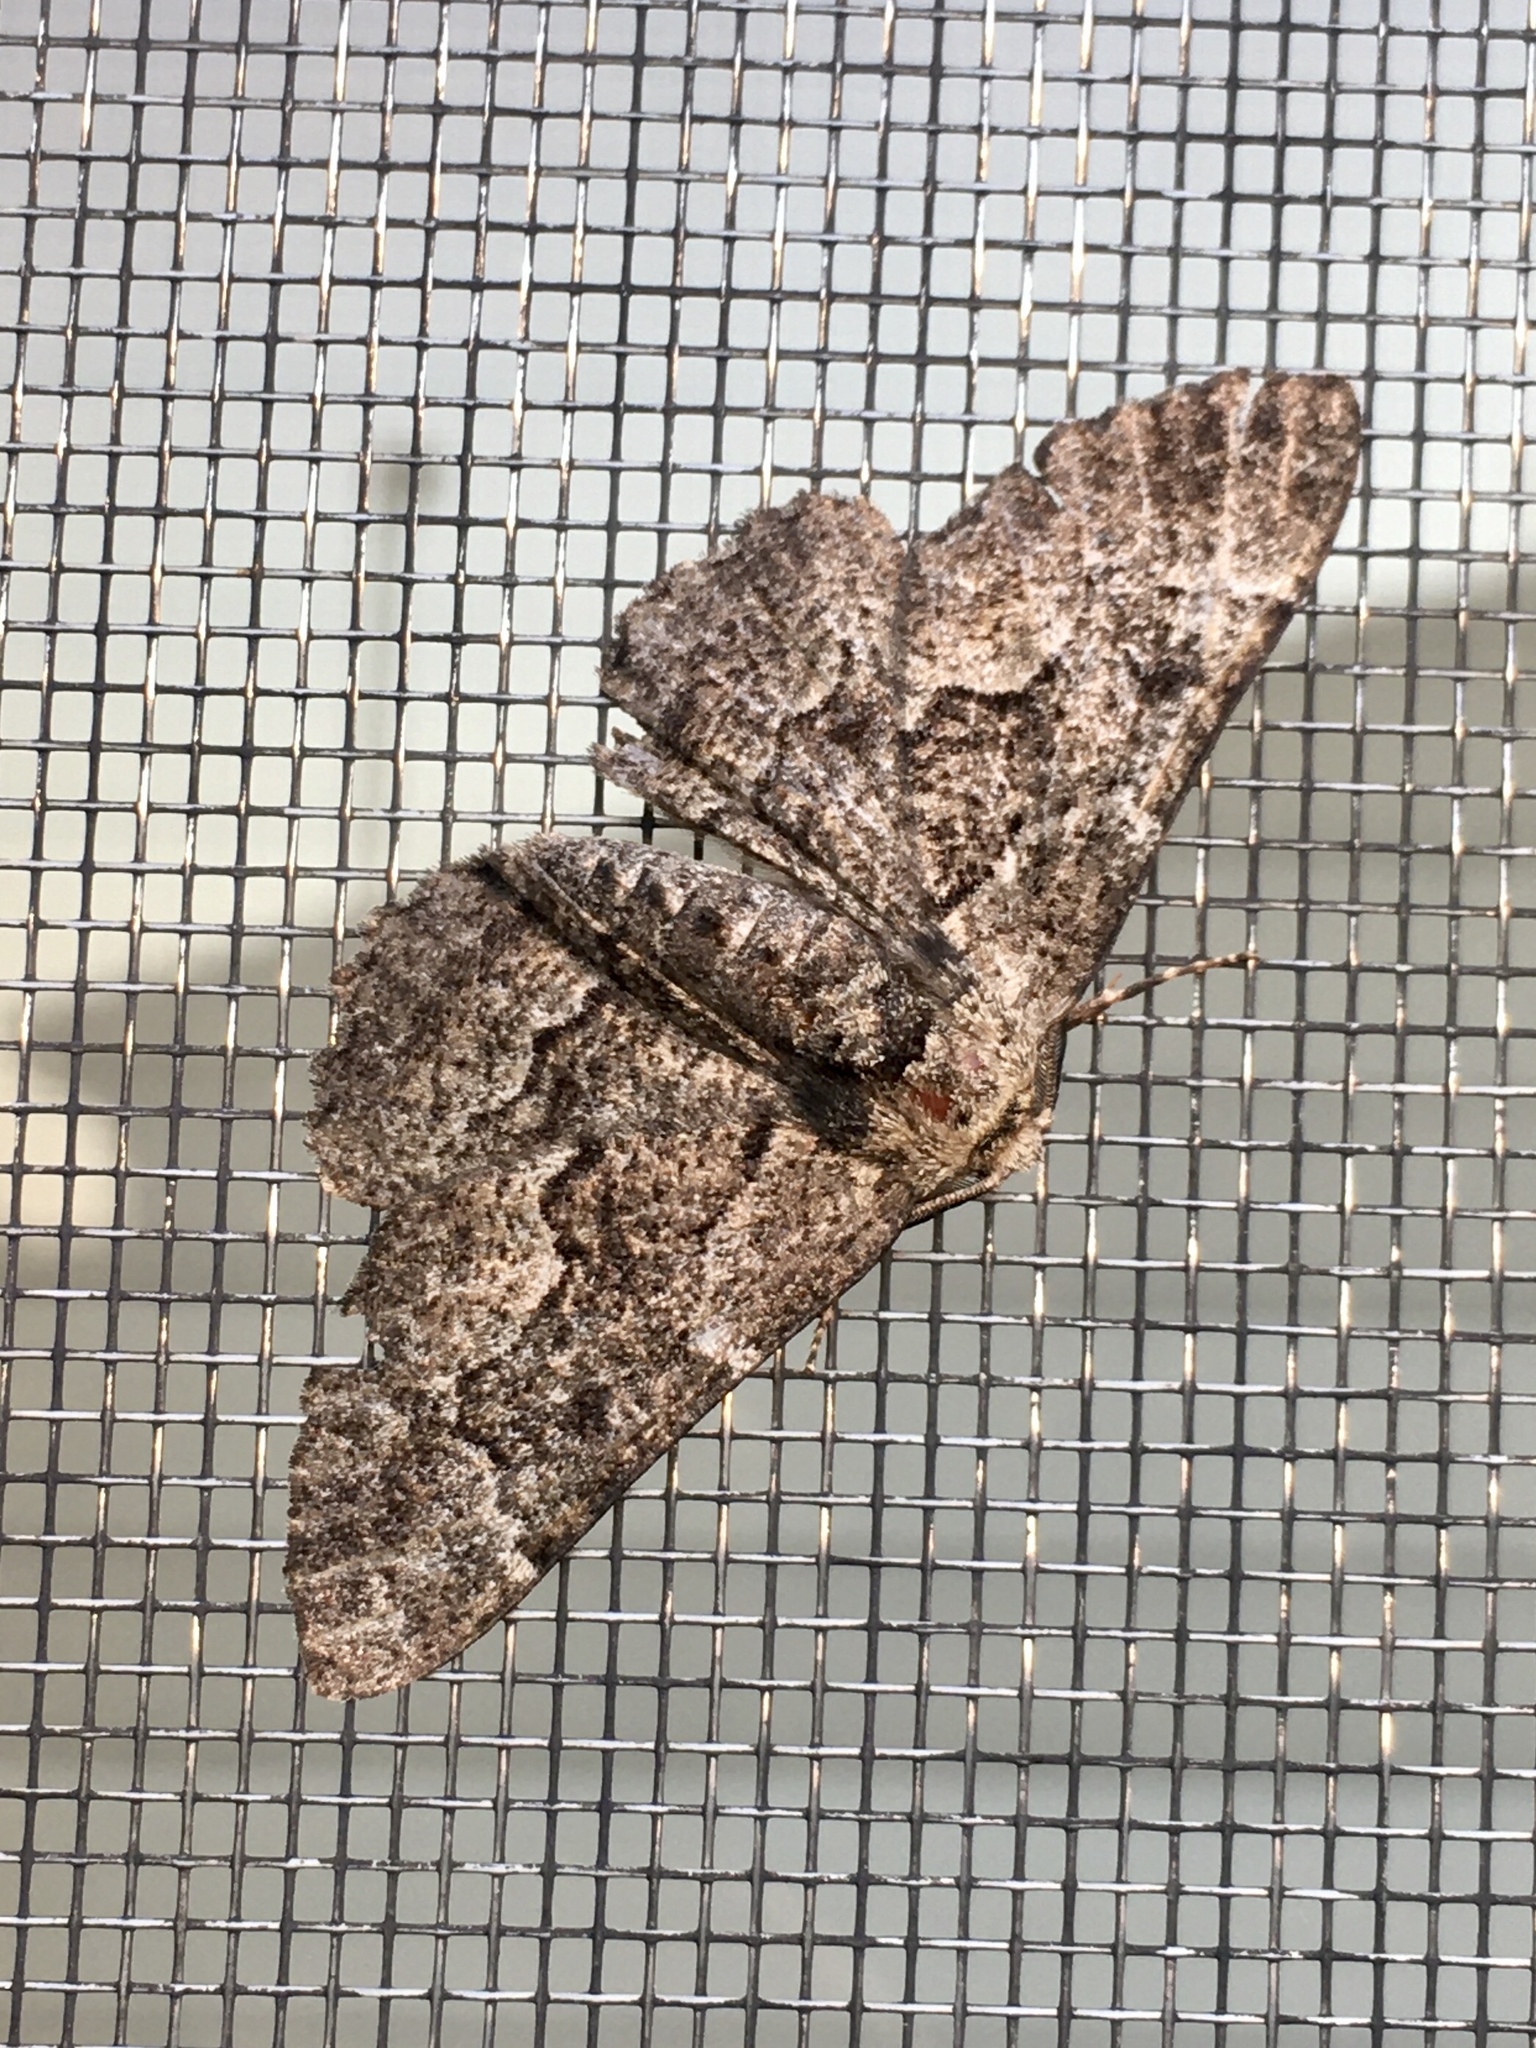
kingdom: Animalia
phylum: Arthropoda
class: Insecta
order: Lepidoptera
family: Geometridae
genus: Phaeoura
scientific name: Phaeoura quernaria
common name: Oak beauty
